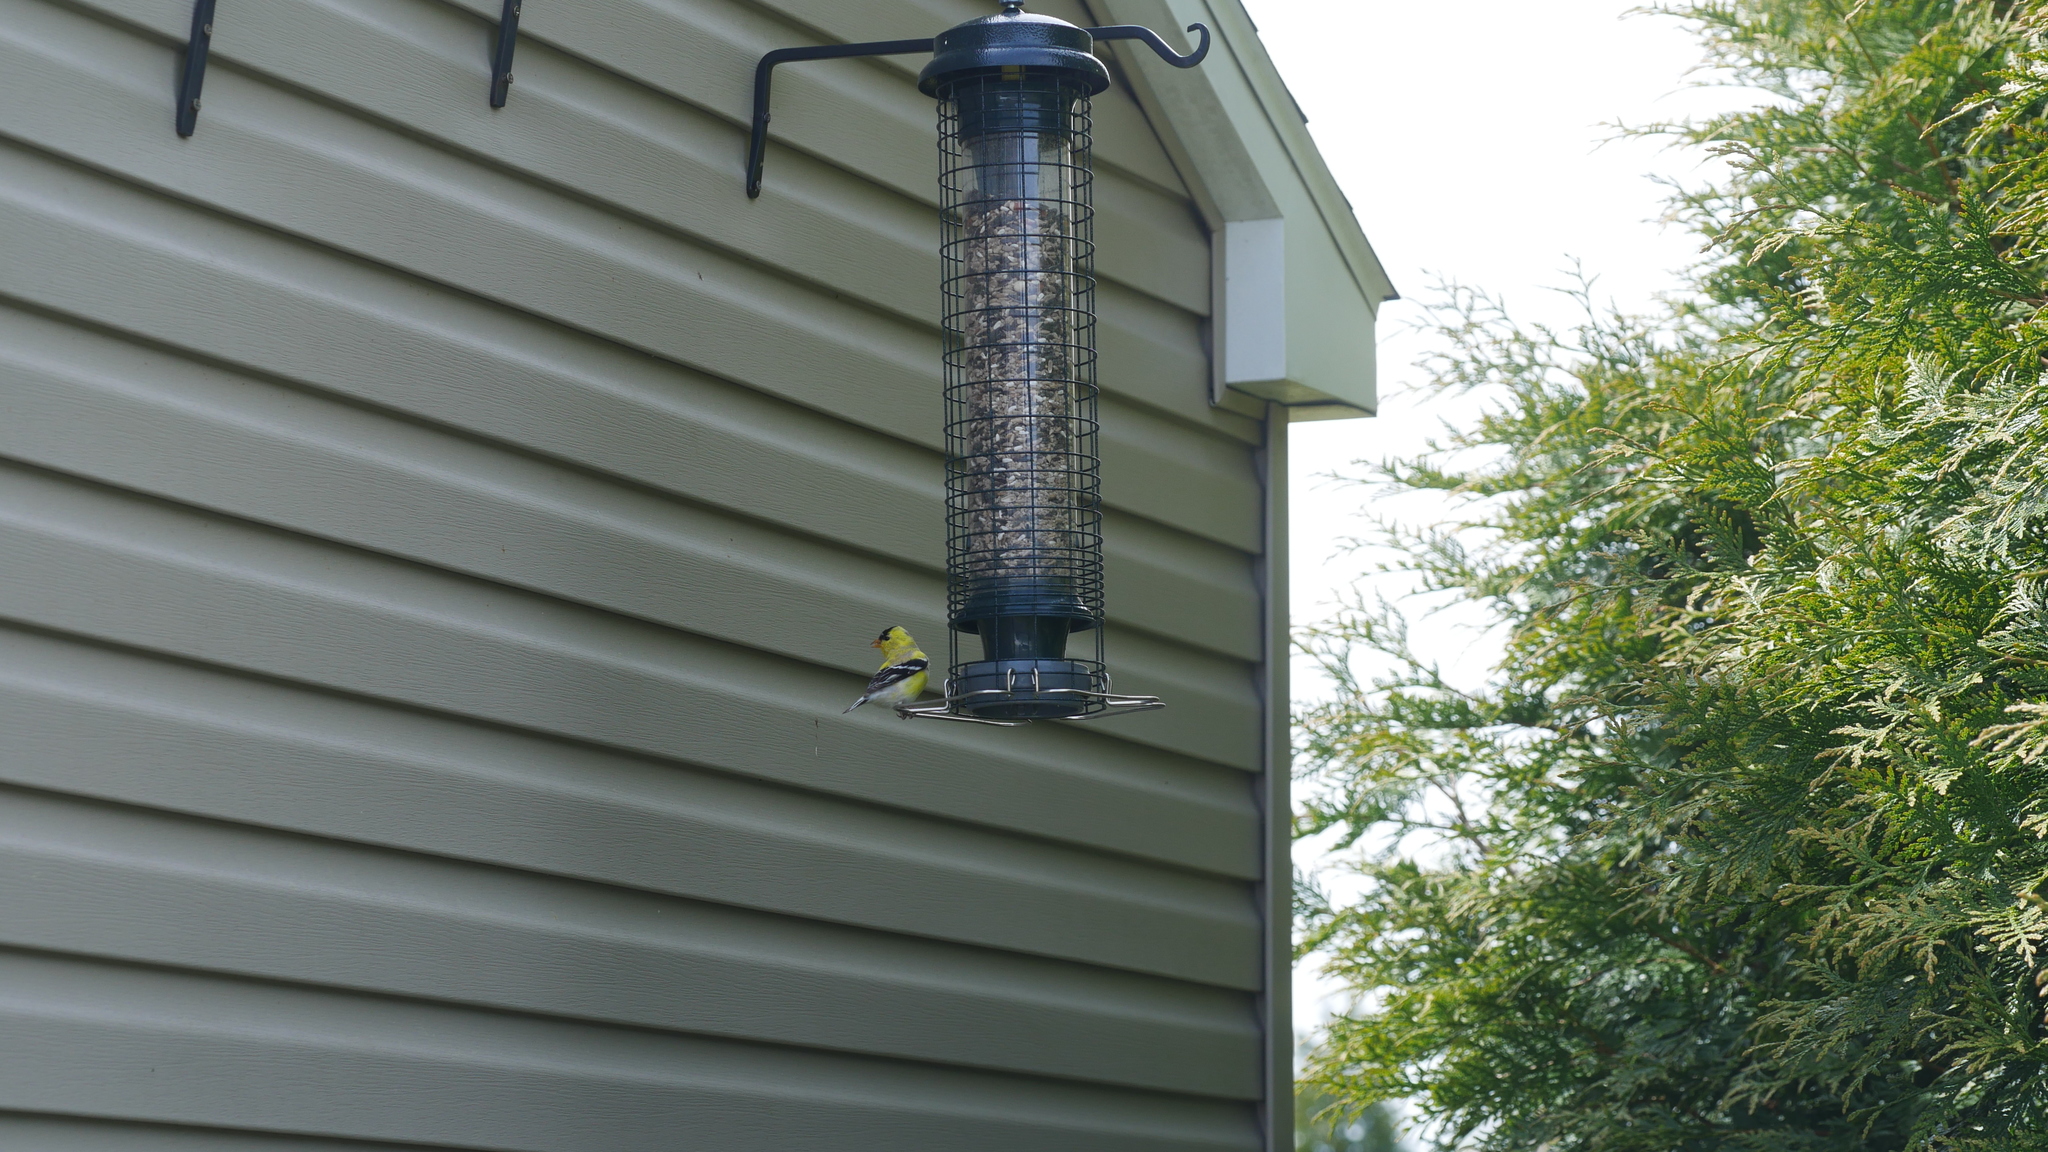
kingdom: Animalia
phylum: Chordata
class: Aves
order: Passeriformes
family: Fringillidae
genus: Spinus
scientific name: Spinus tristis
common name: American goldfinch
